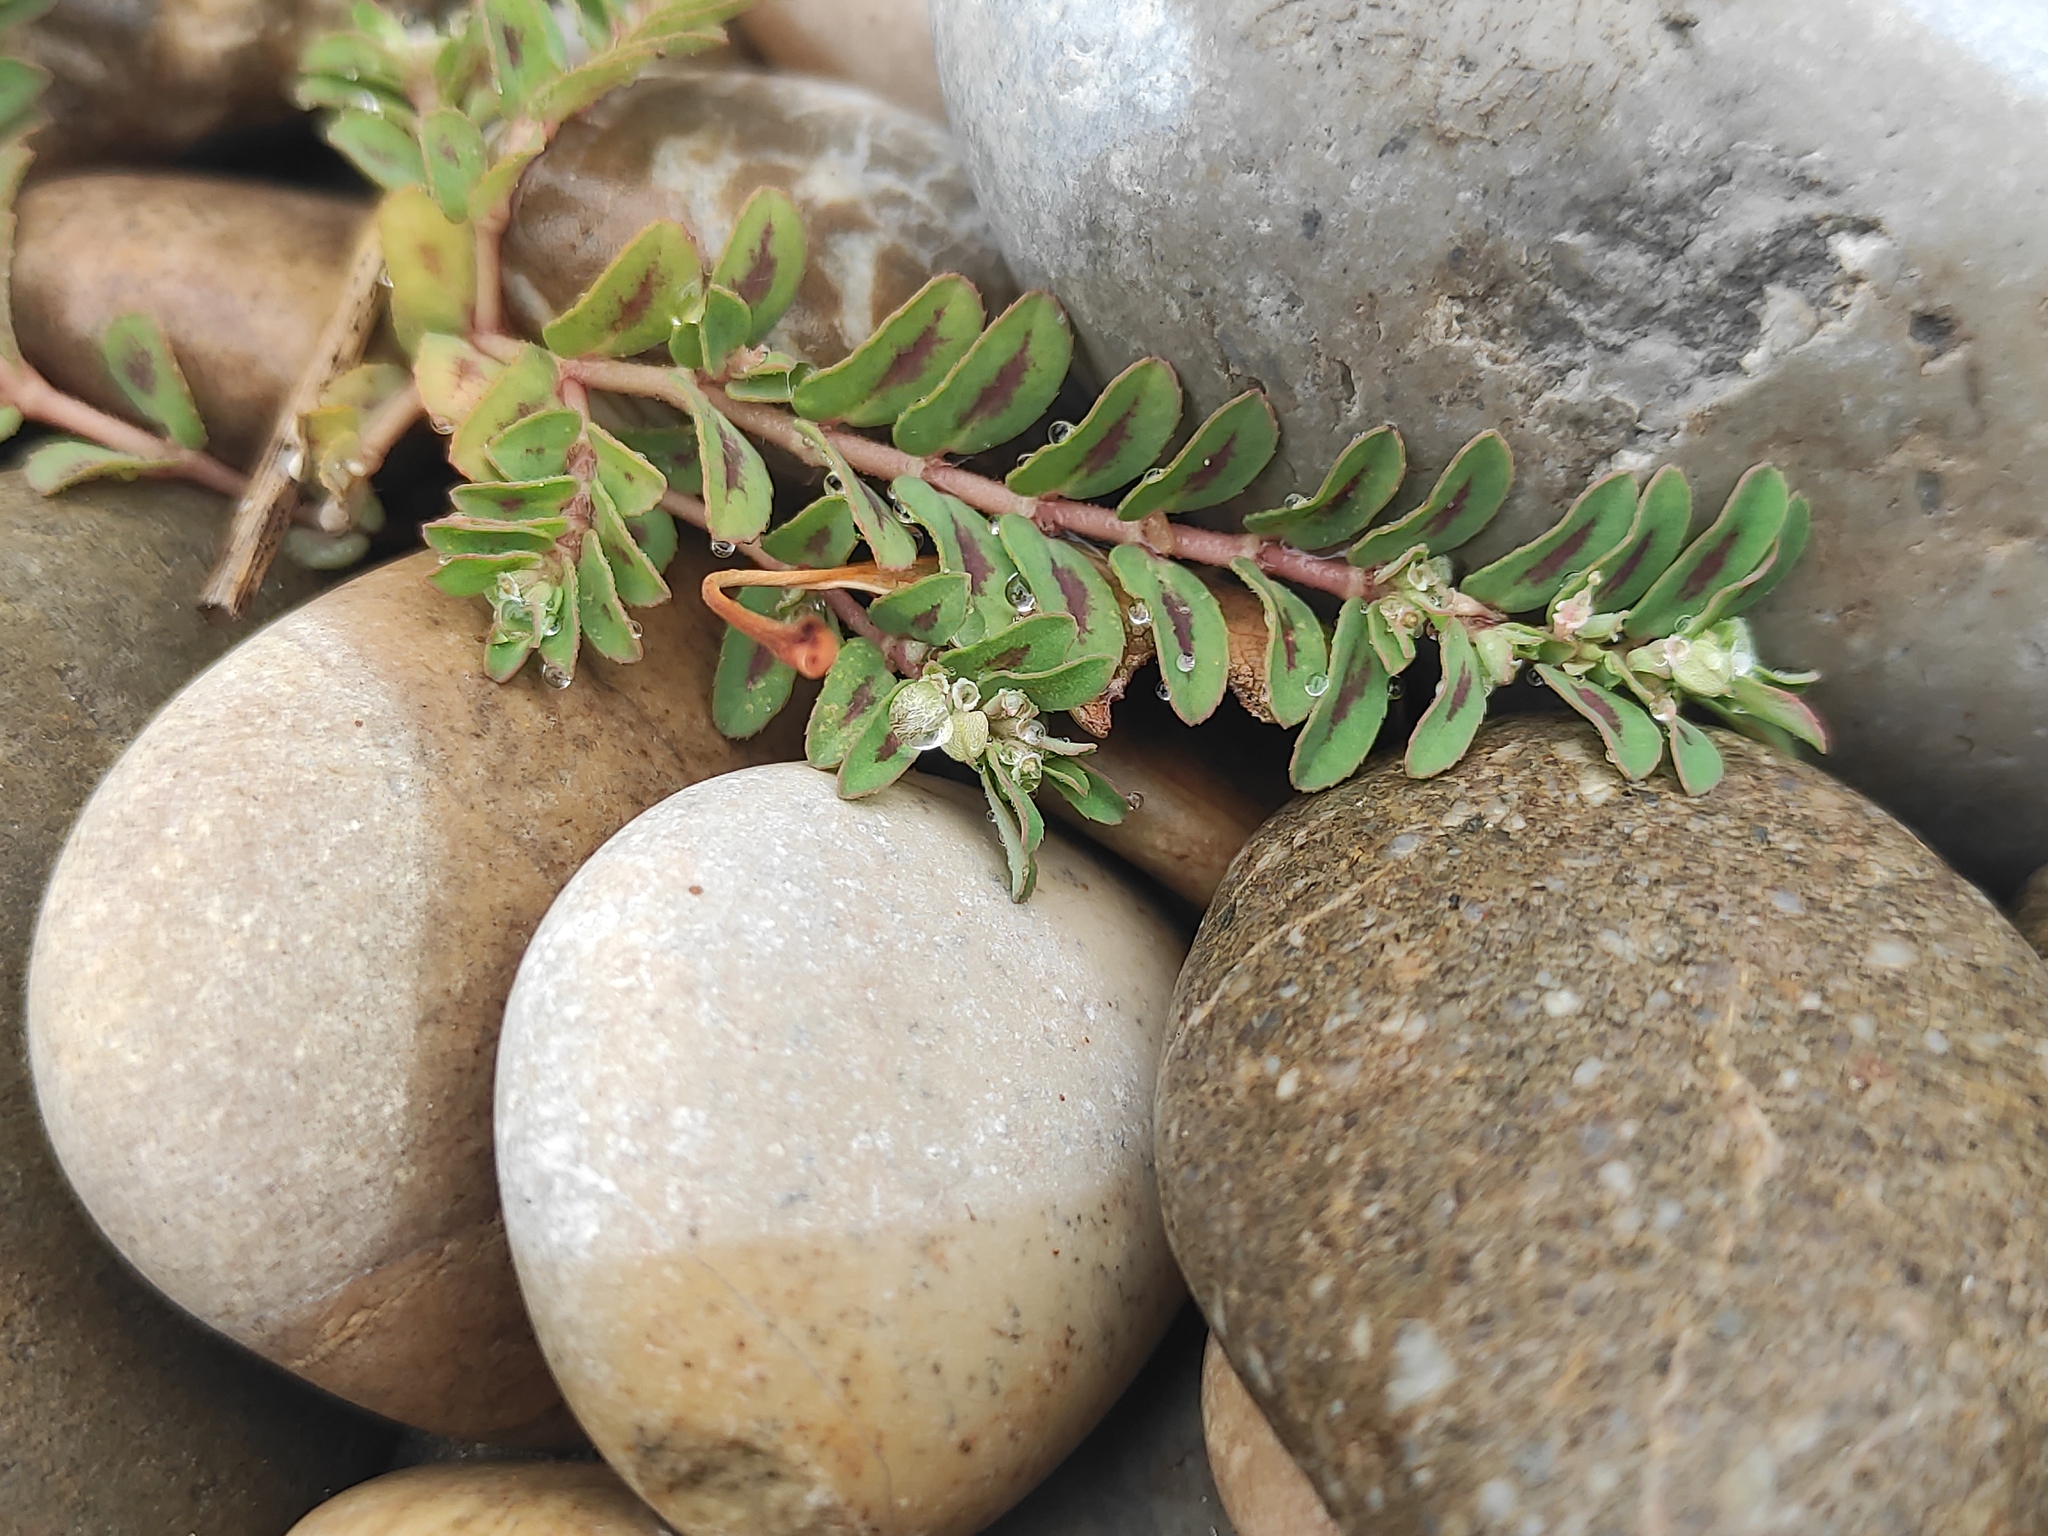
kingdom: Plantae
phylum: Tracheophyta
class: Magnoliopsida
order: Malpighiales
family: Euphorbiaceae
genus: Euphorbia
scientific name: Euphorbia maculata
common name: Spotted spurge
